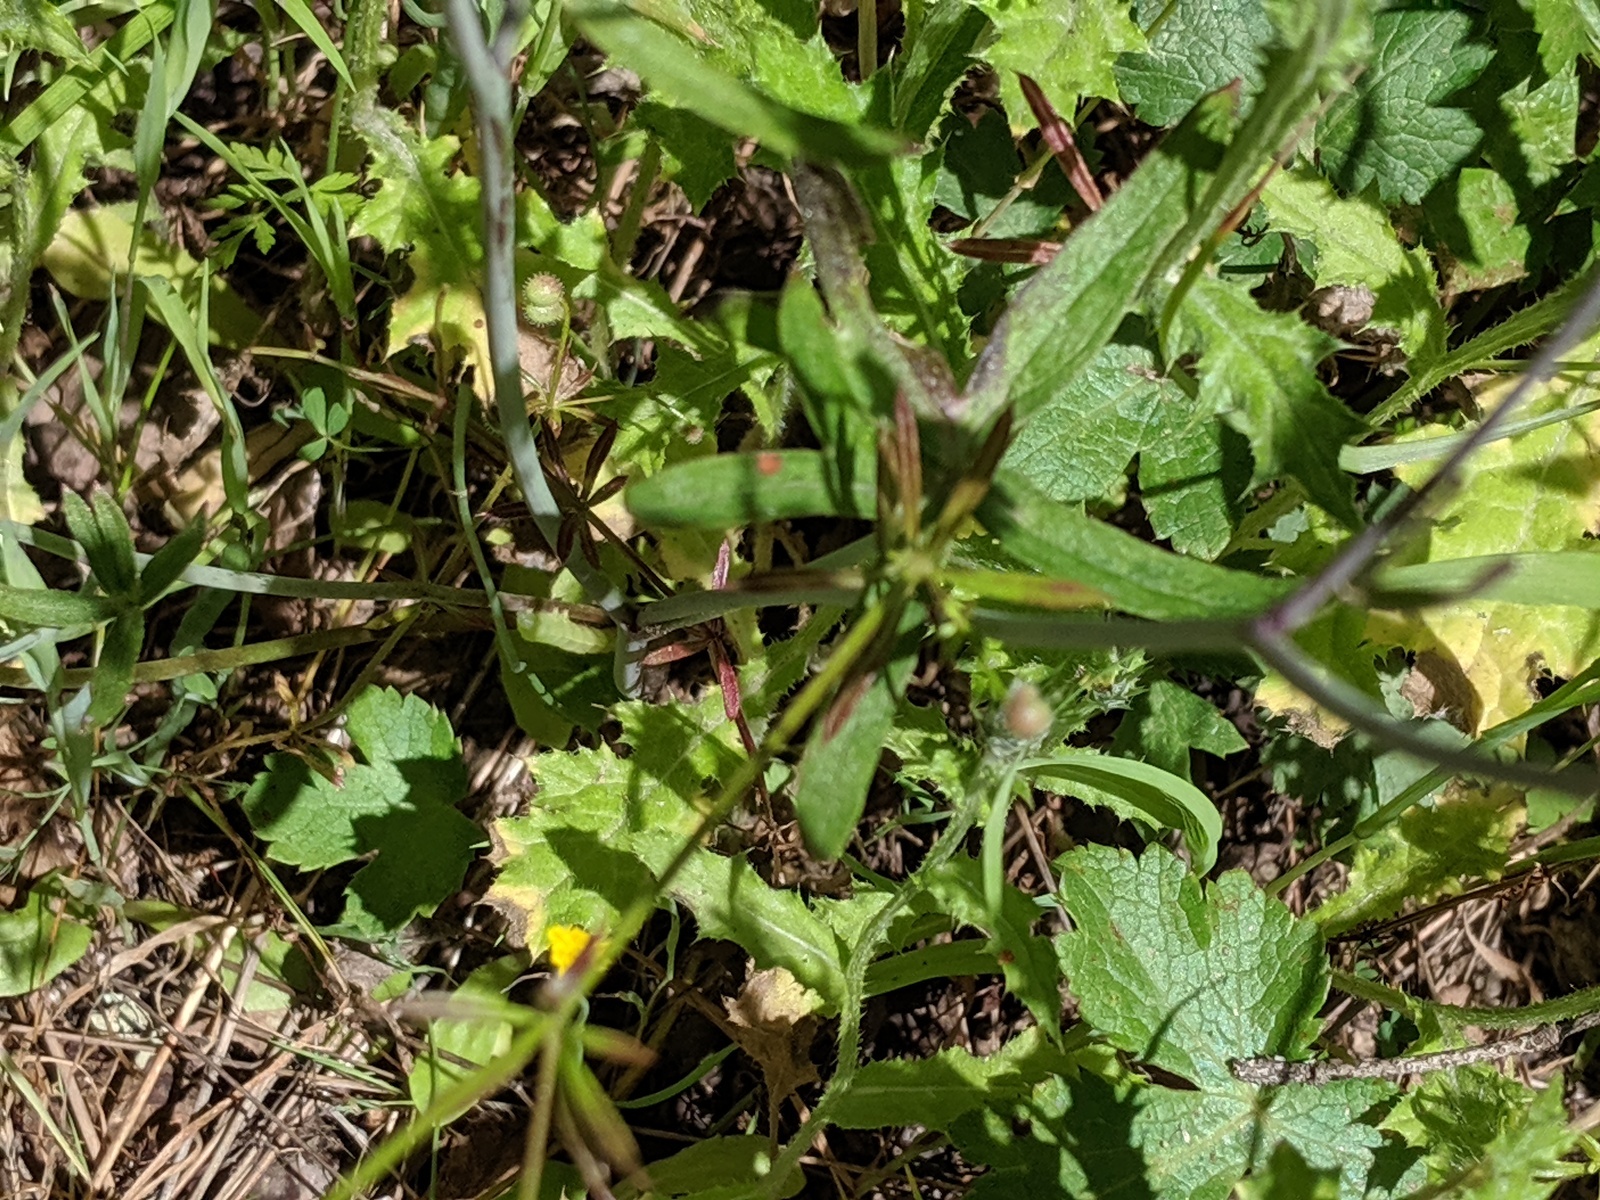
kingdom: Plantae
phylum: Tracheophyta
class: Magnoliopsida
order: Ranunculales
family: Ranunculaceae
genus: Delphinium
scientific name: Delphinium patens
